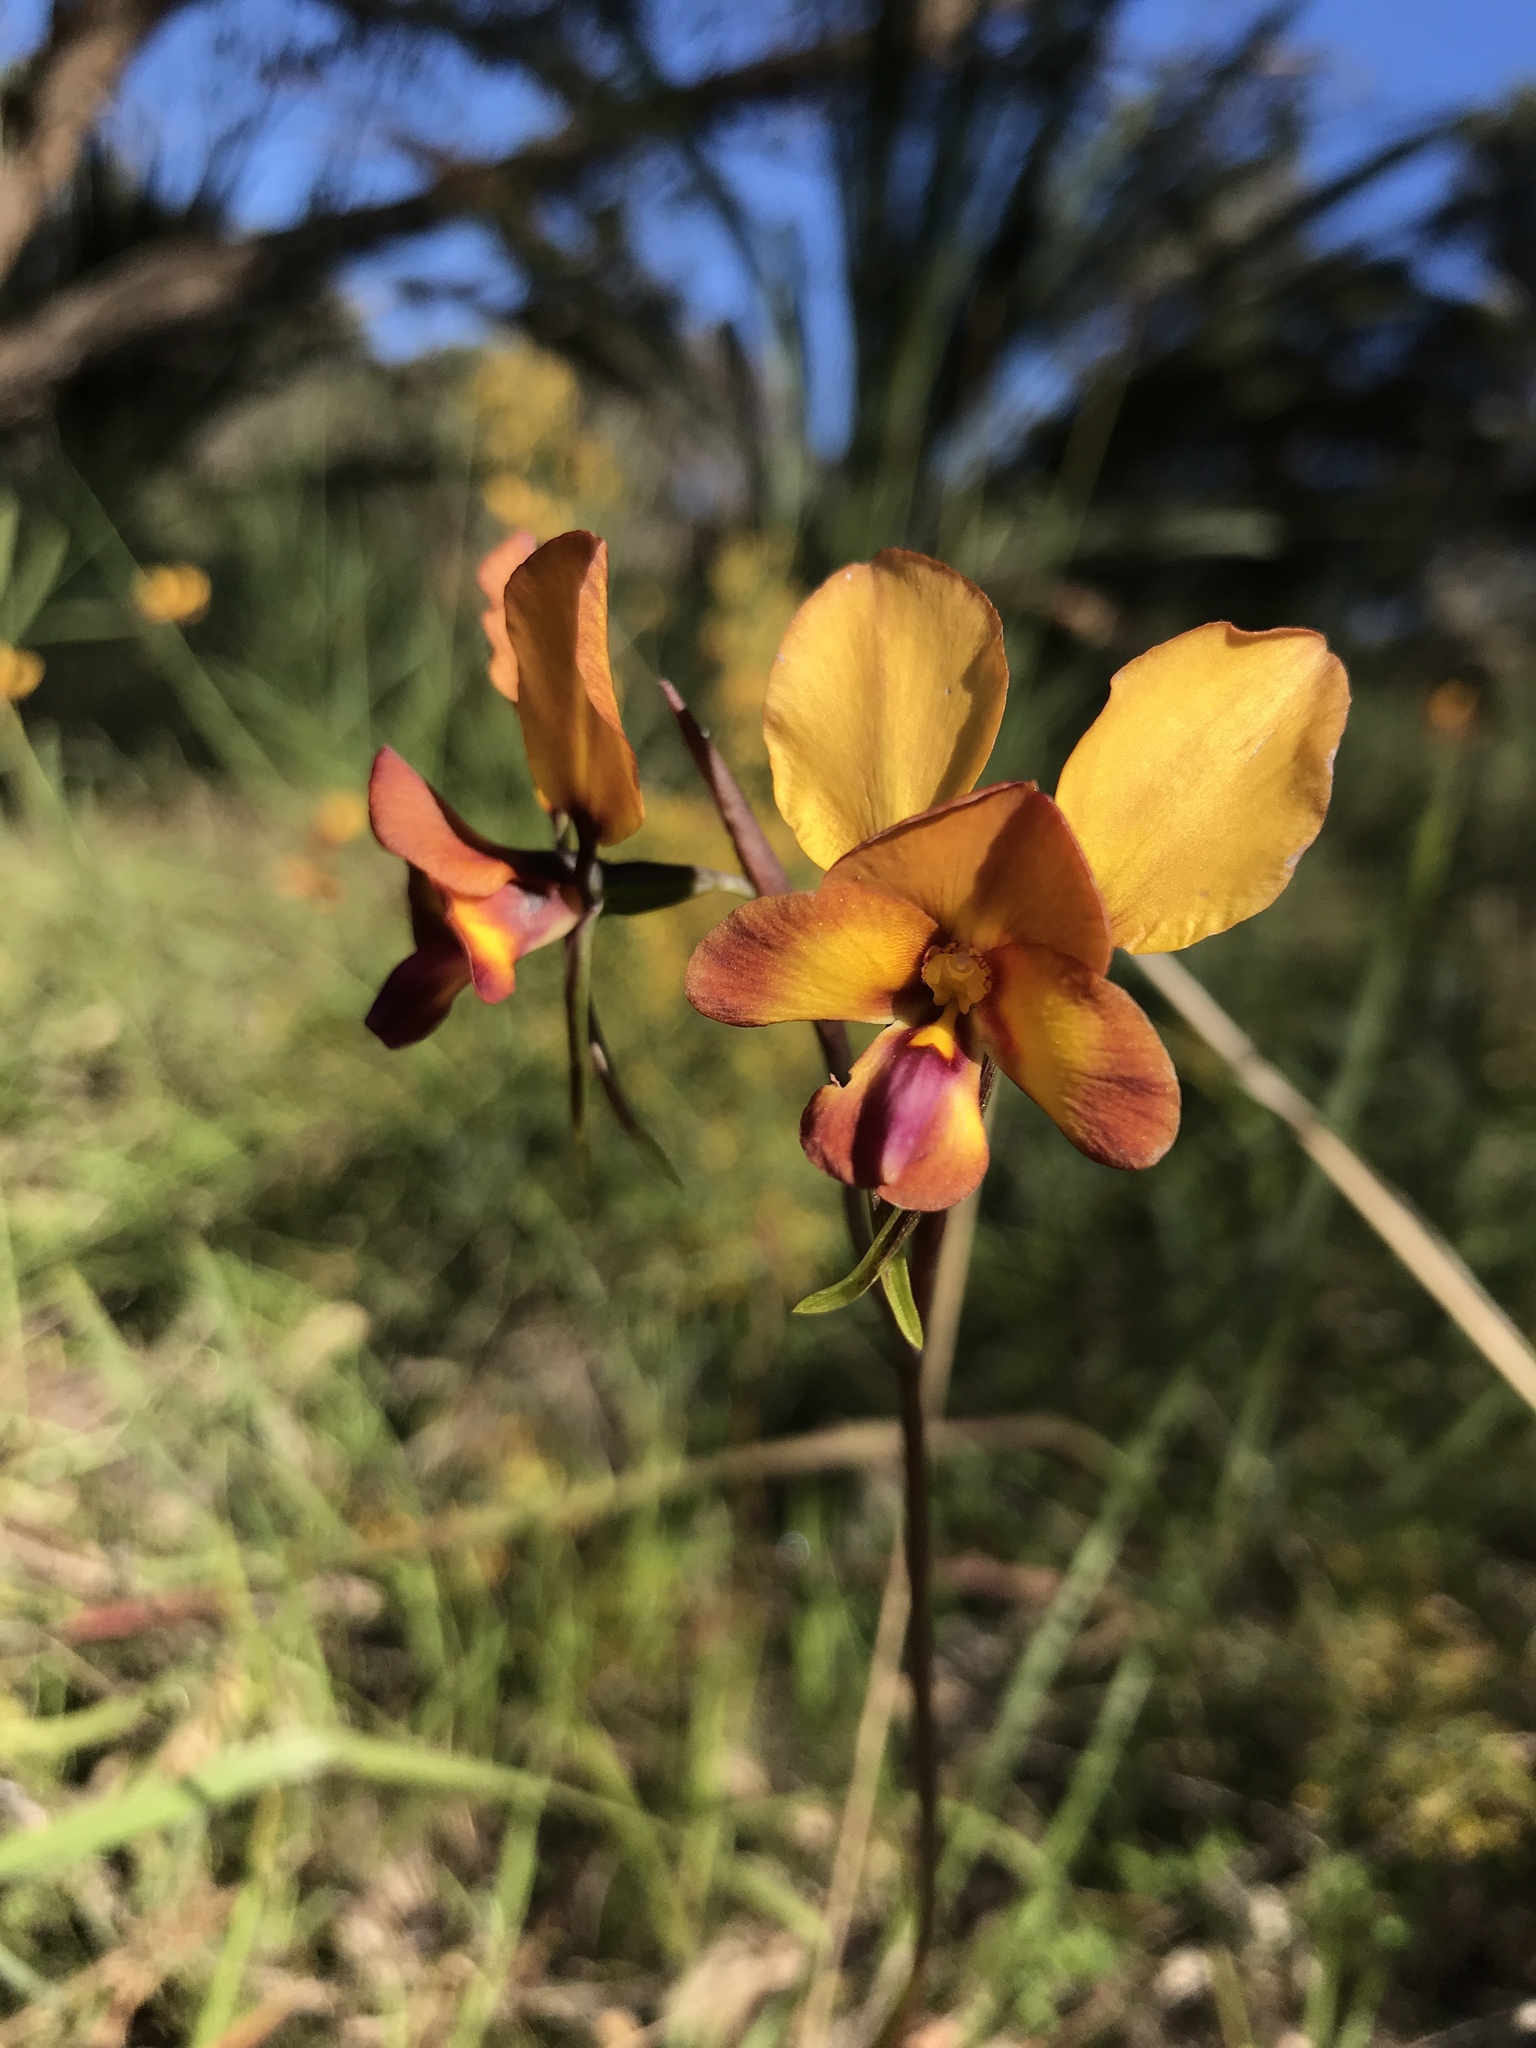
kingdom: Plantae
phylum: Tracheophyta
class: Liliopsida
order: Asparagales
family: Orchidaceae
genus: Diuris
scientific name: Diuris magnifica
